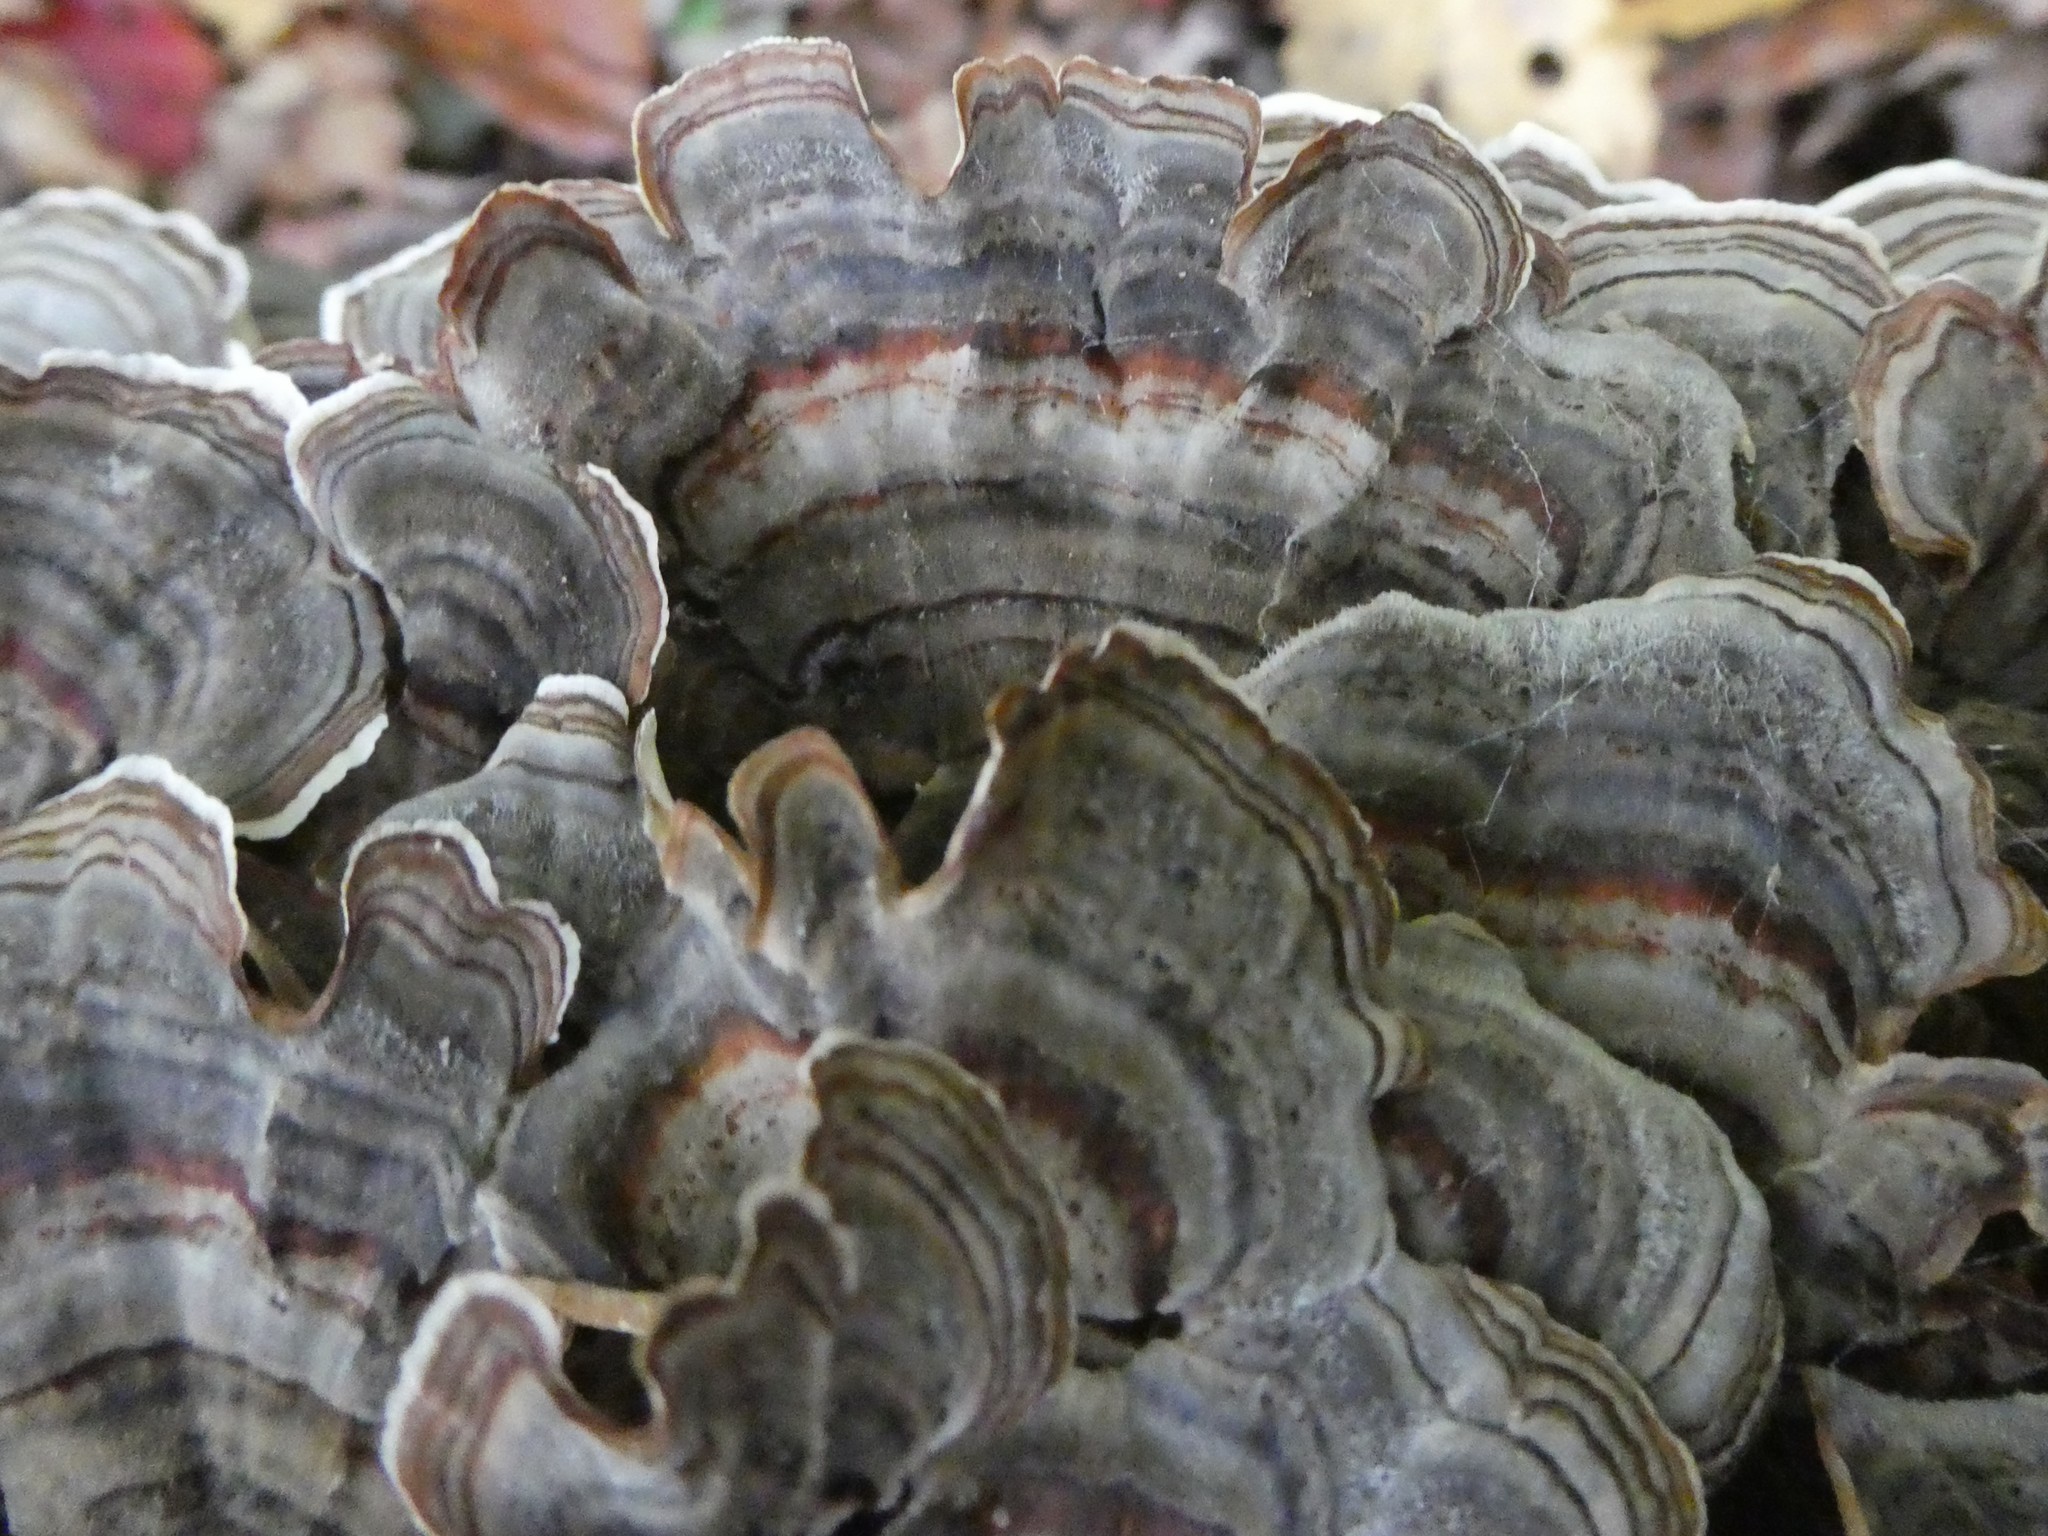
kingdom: Fungi
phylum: Basidiomycota
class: Agaricomycetes
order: Polyporales
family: Polyporaceae
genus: Trametes
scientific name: Trametes versicolor
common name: Turkeytail
